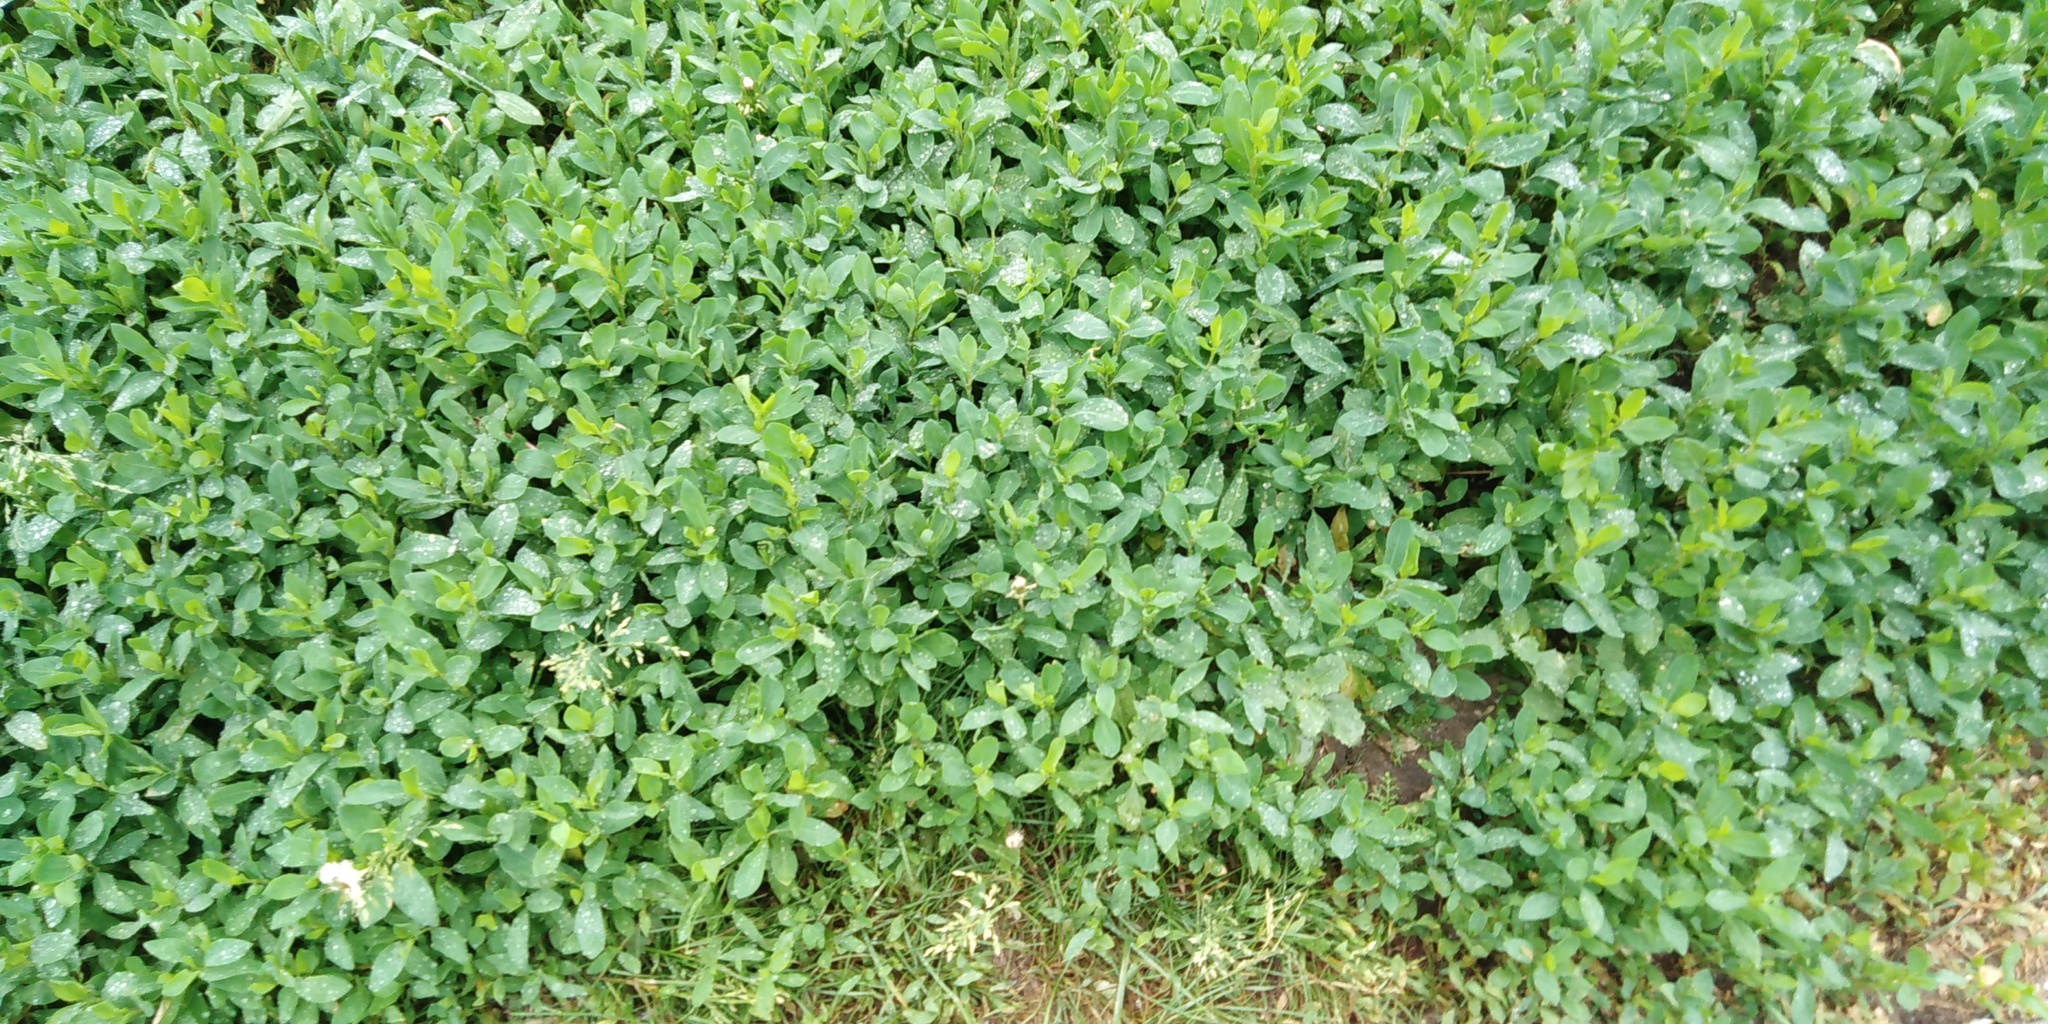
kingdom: Plantae
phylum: Tracheophyta
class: Magnoliopsida
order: Caryophyllales
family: Polygonaceae
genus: Polygonum
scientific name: Polygonum
